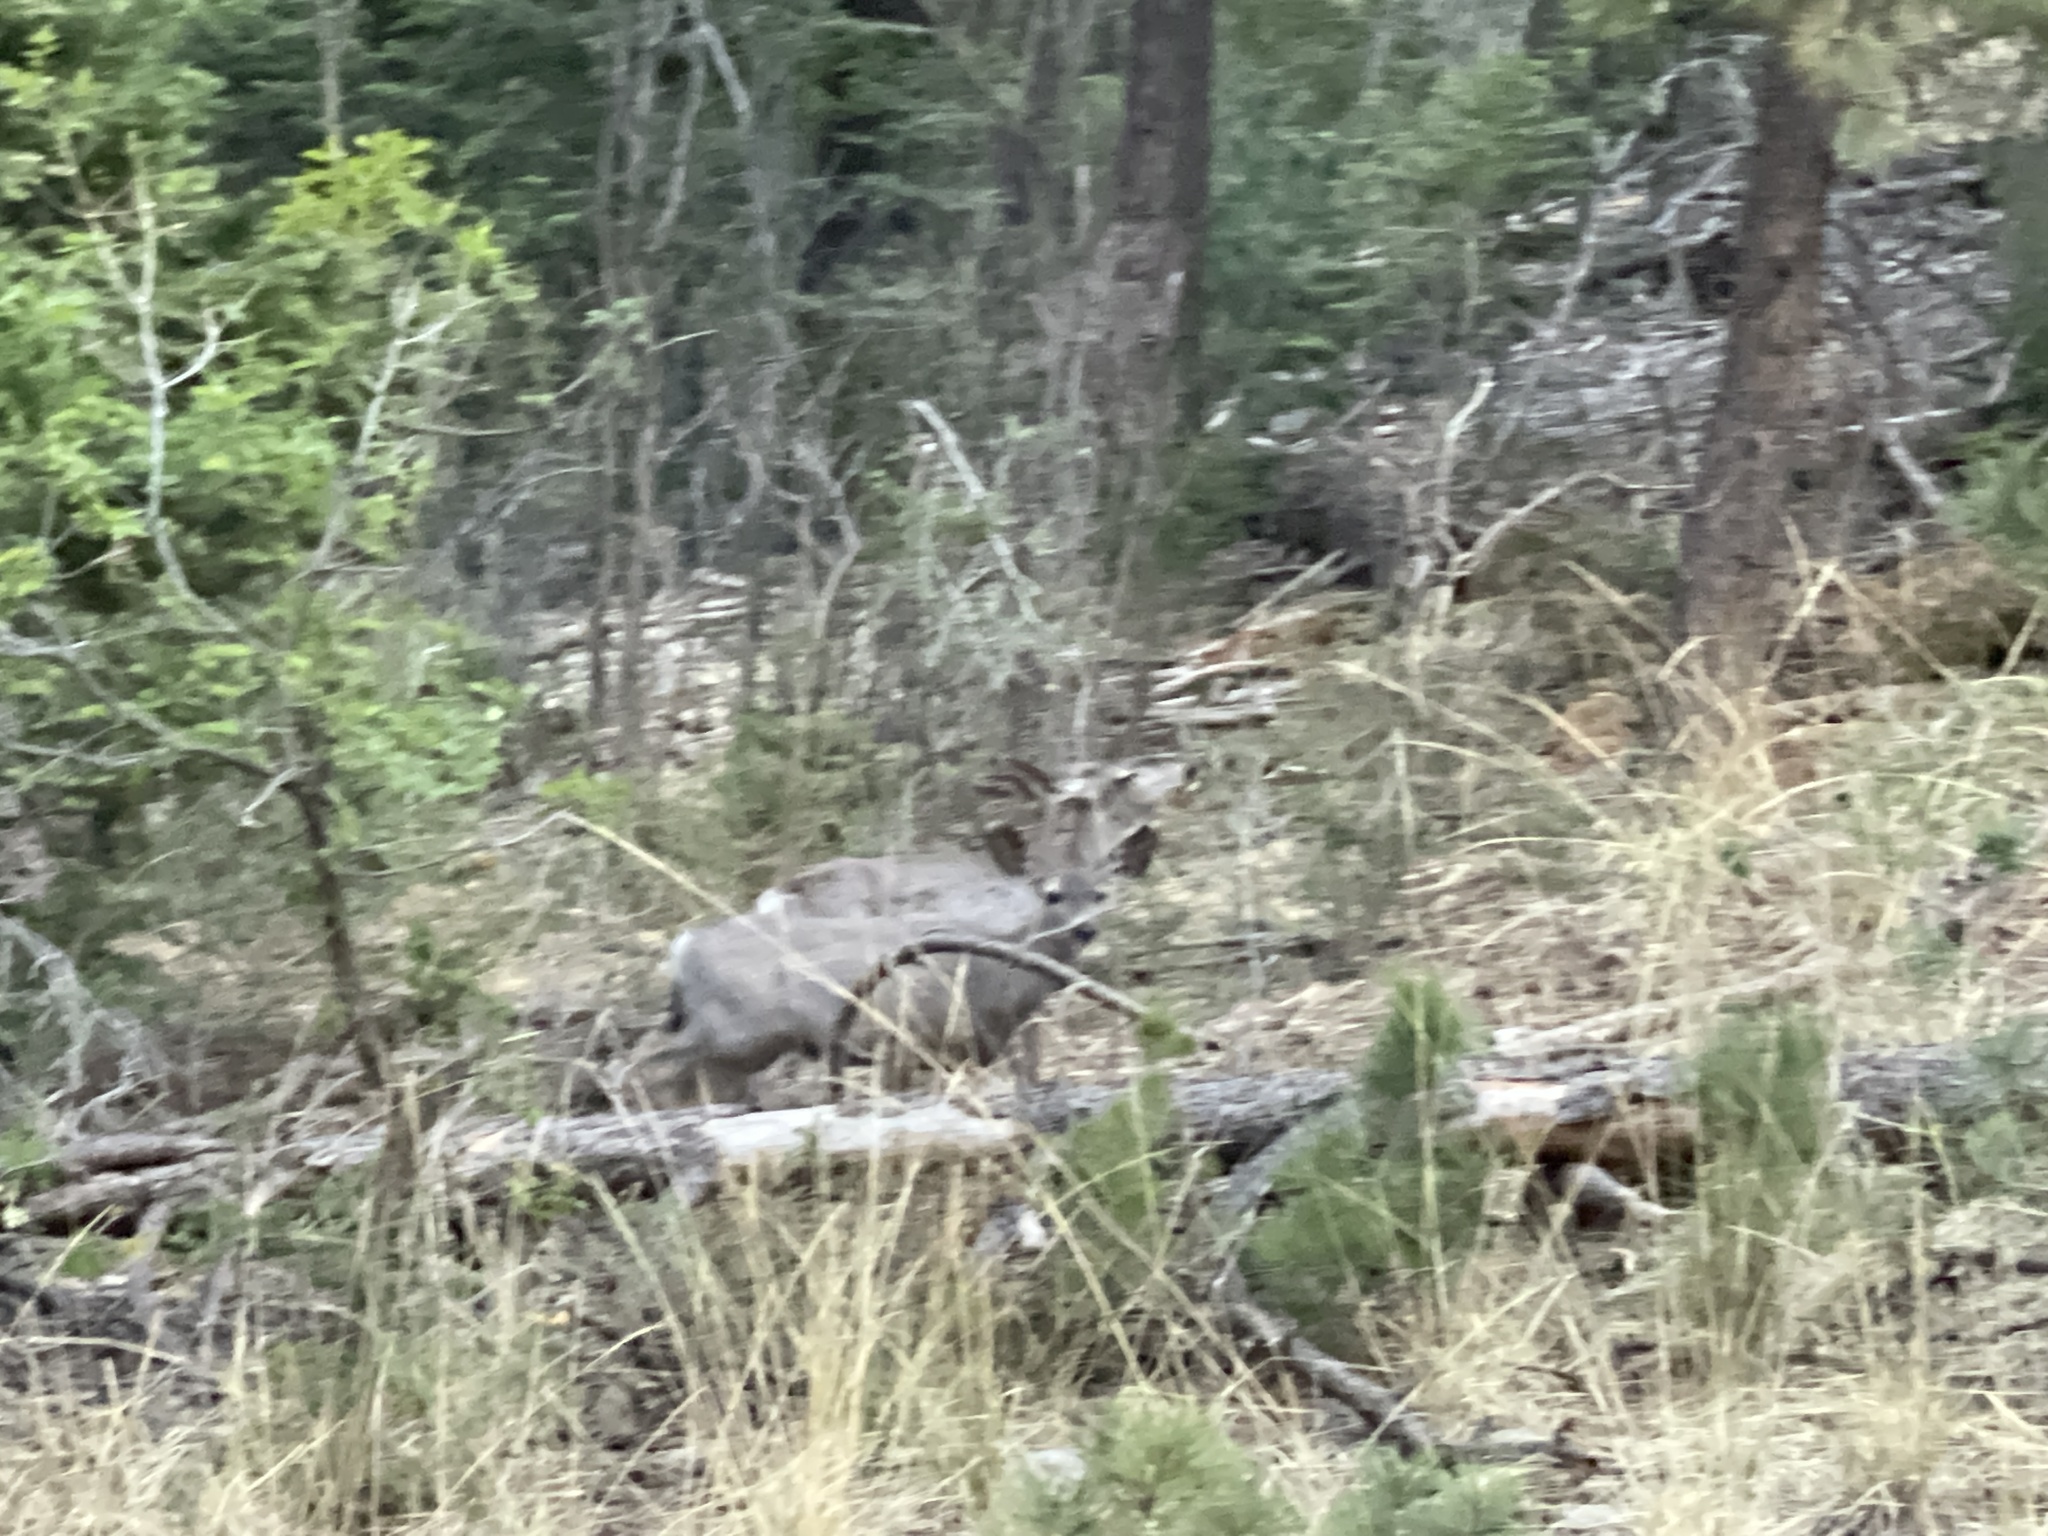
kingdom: Animalia
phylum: Chordata
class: Mammalia
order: Artiodactyla
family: Cervidae
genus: Odocoileus
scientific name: Odocoileus hemionus
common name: Mule deer
